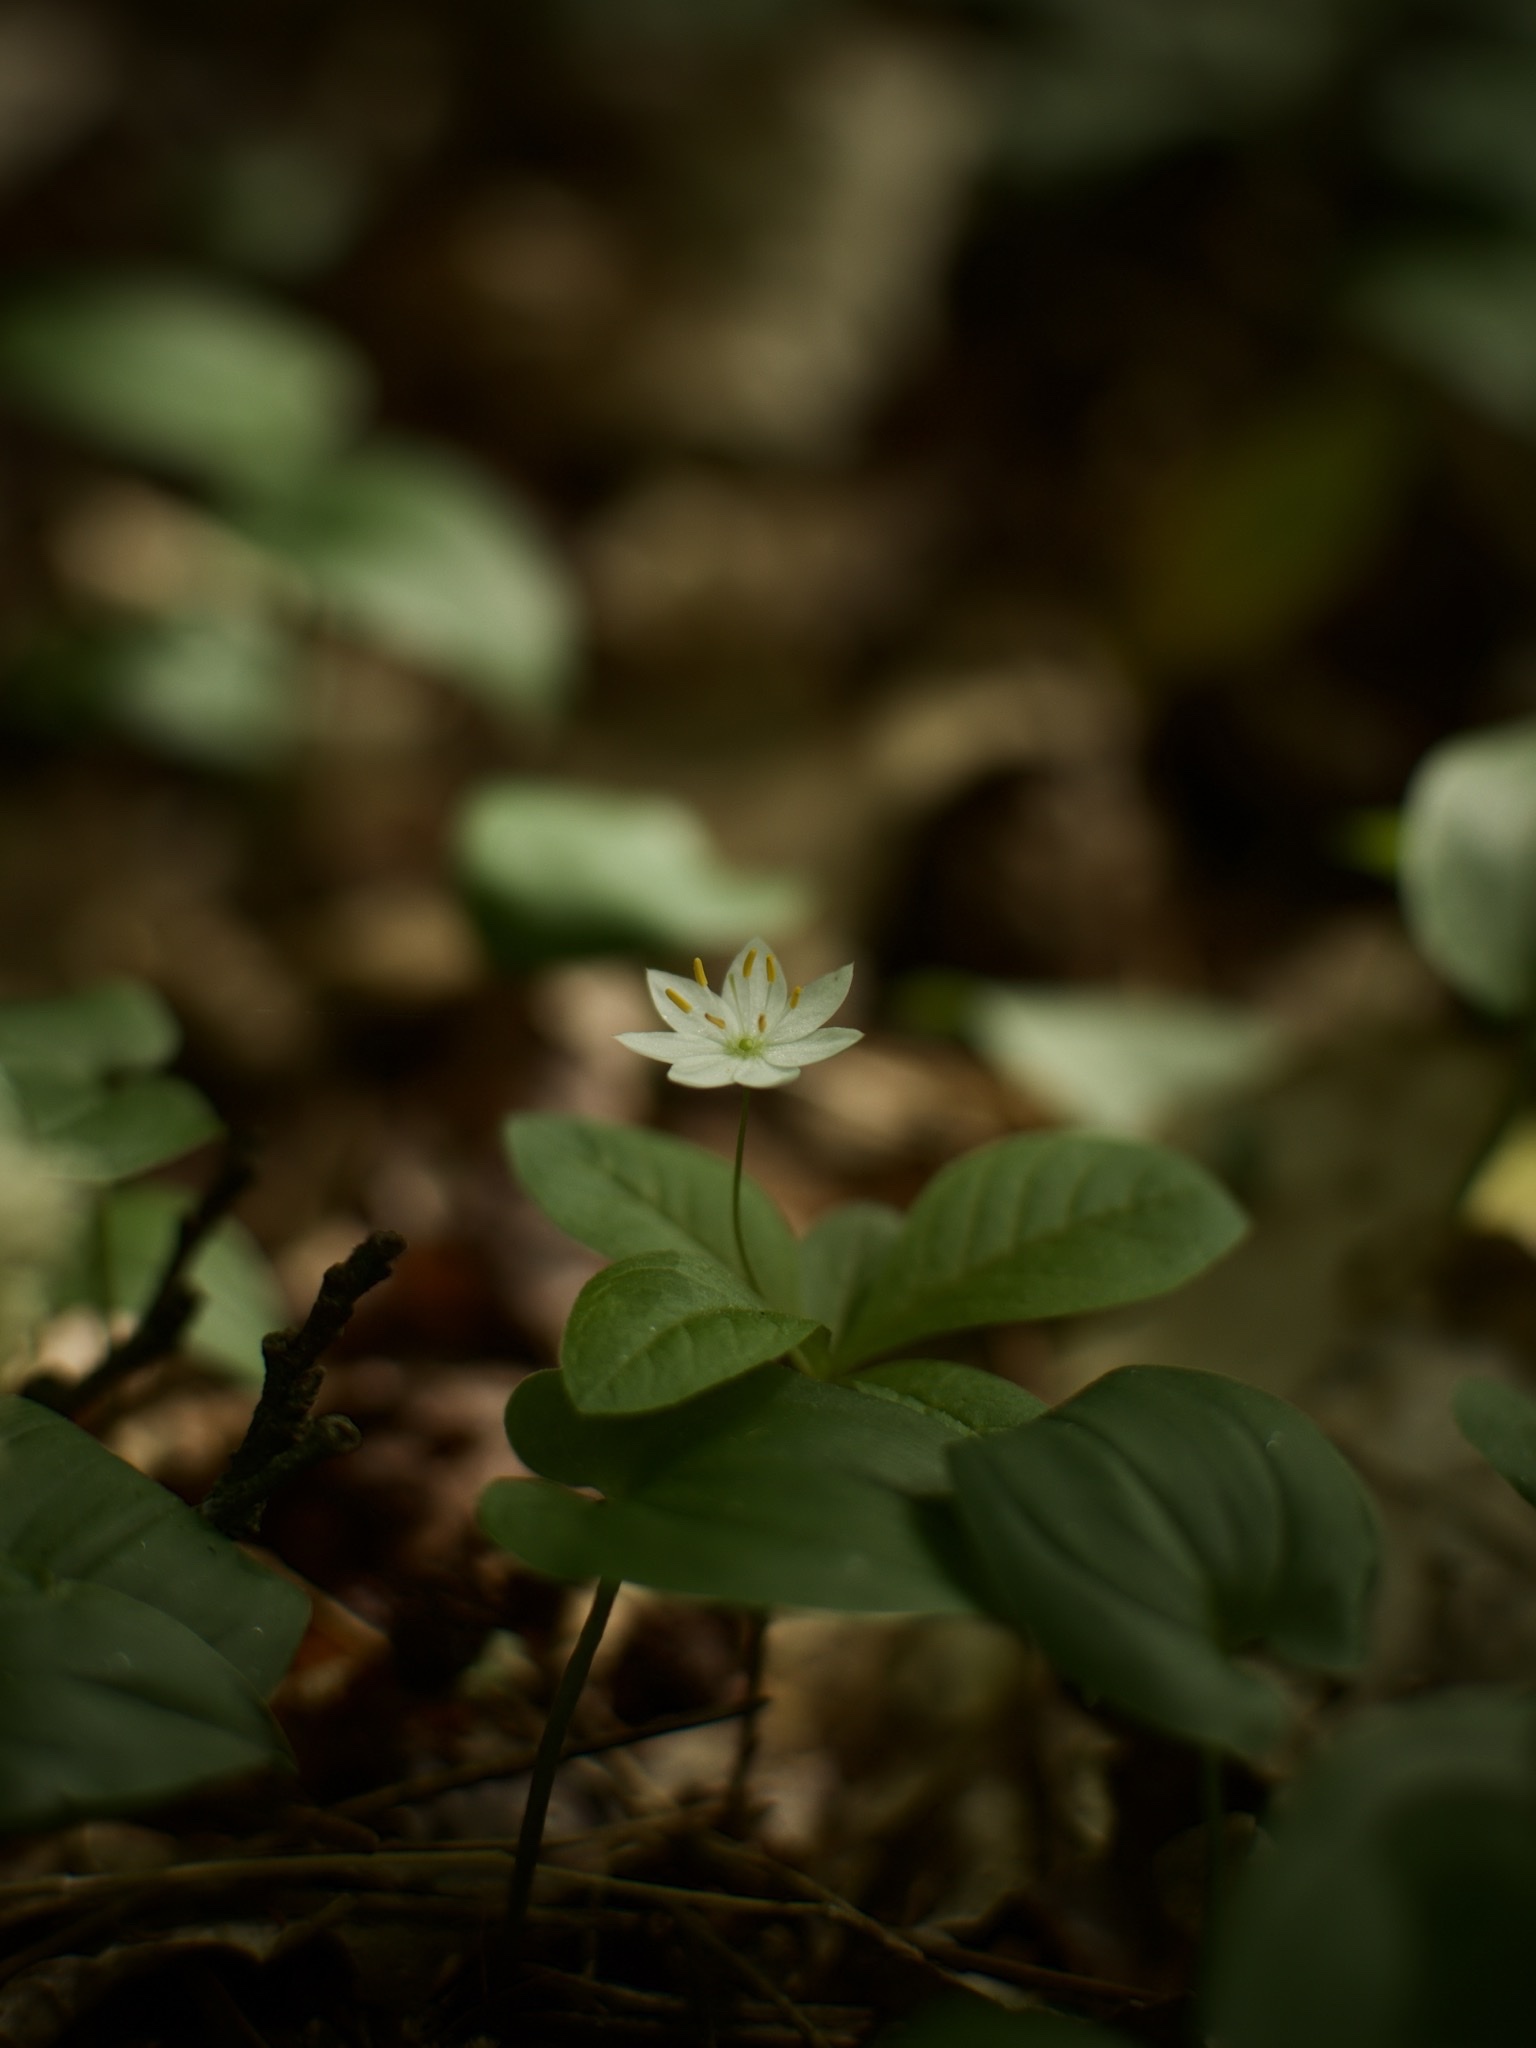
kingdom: Plantae
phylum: Tracheophyta
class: Magnoliopsida
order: Ericales
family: Primulaceae
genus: Lysimachia
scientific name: Lysimachia europaea
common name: Arctic starflower
